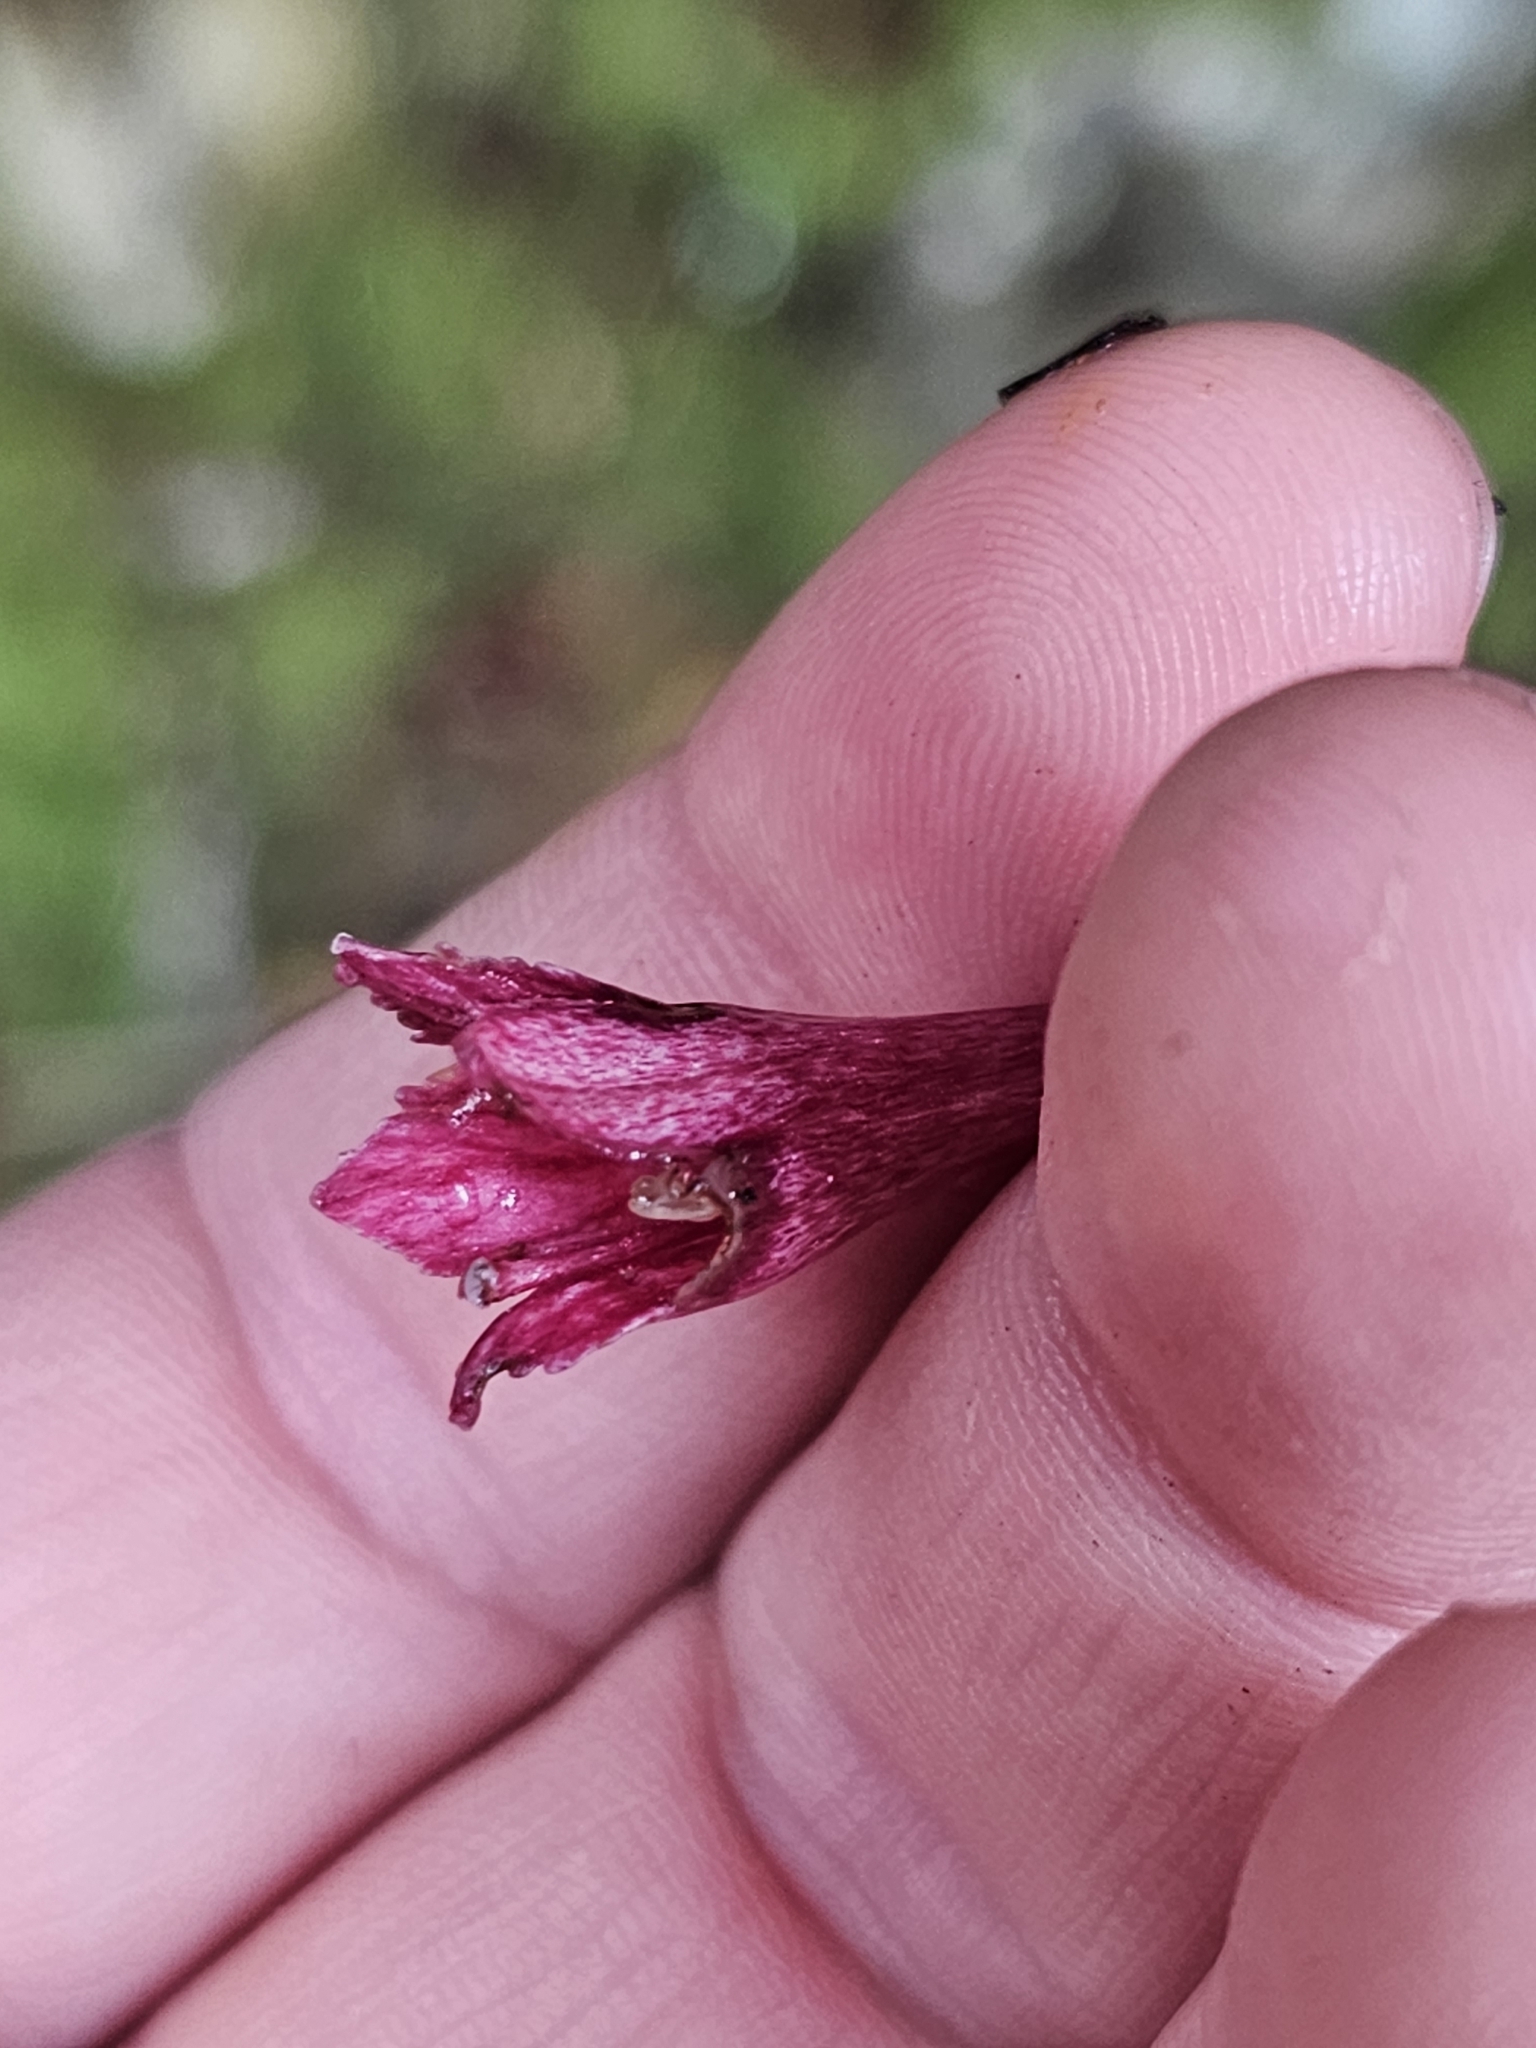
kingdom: Plantae
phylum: Tracheophyta
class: Magnoliopsida
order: Asterales
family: Alseuosmiaceae
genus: Alseuosmia
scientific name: Alseuosmia macrophylla
